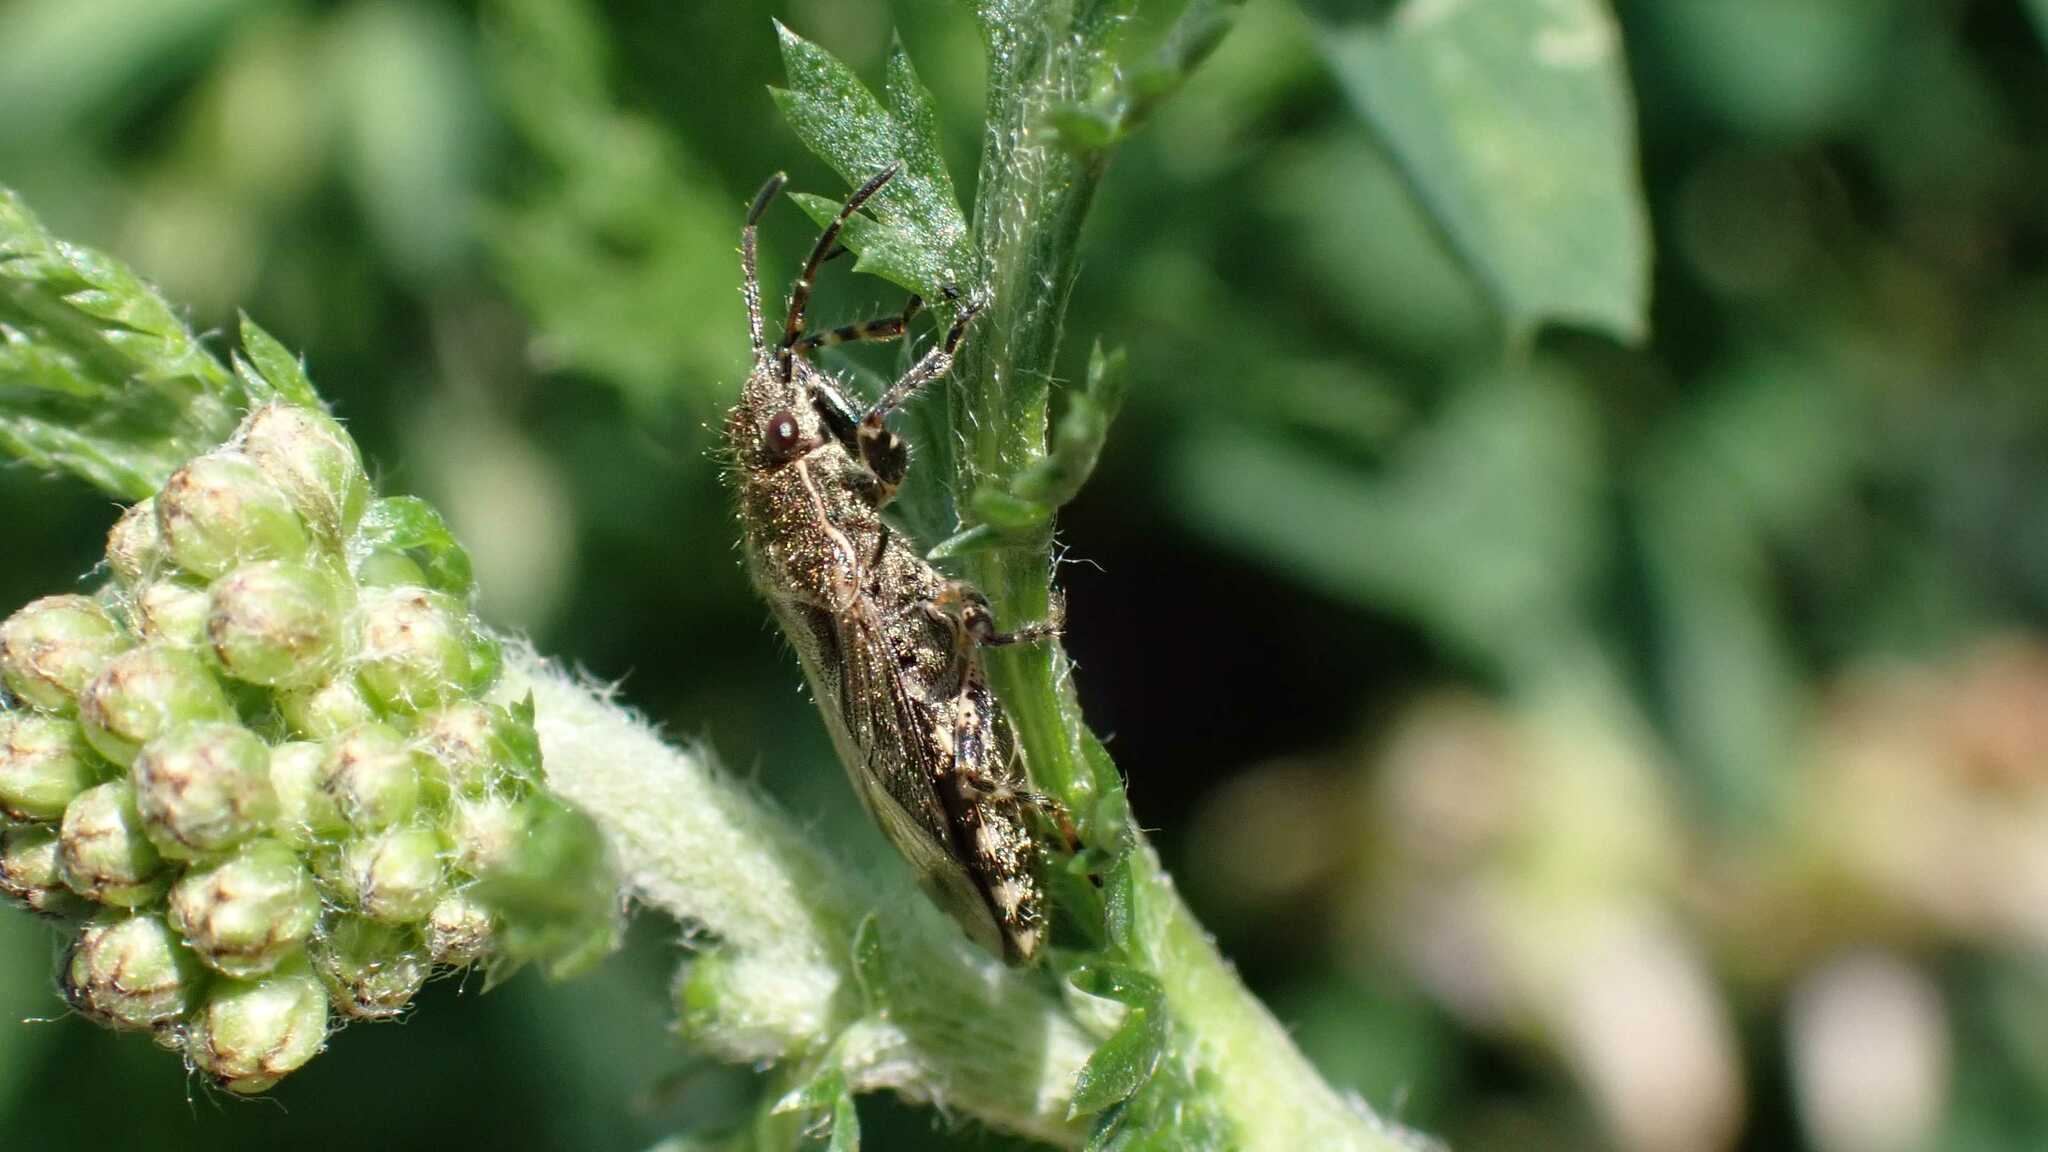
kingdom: Animalia
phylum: Arthropoda
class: Insecta
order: Hemiptera
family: Heterogastridae
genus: Heterogaster
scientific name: Heterogaster urticae
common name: Seed bug
